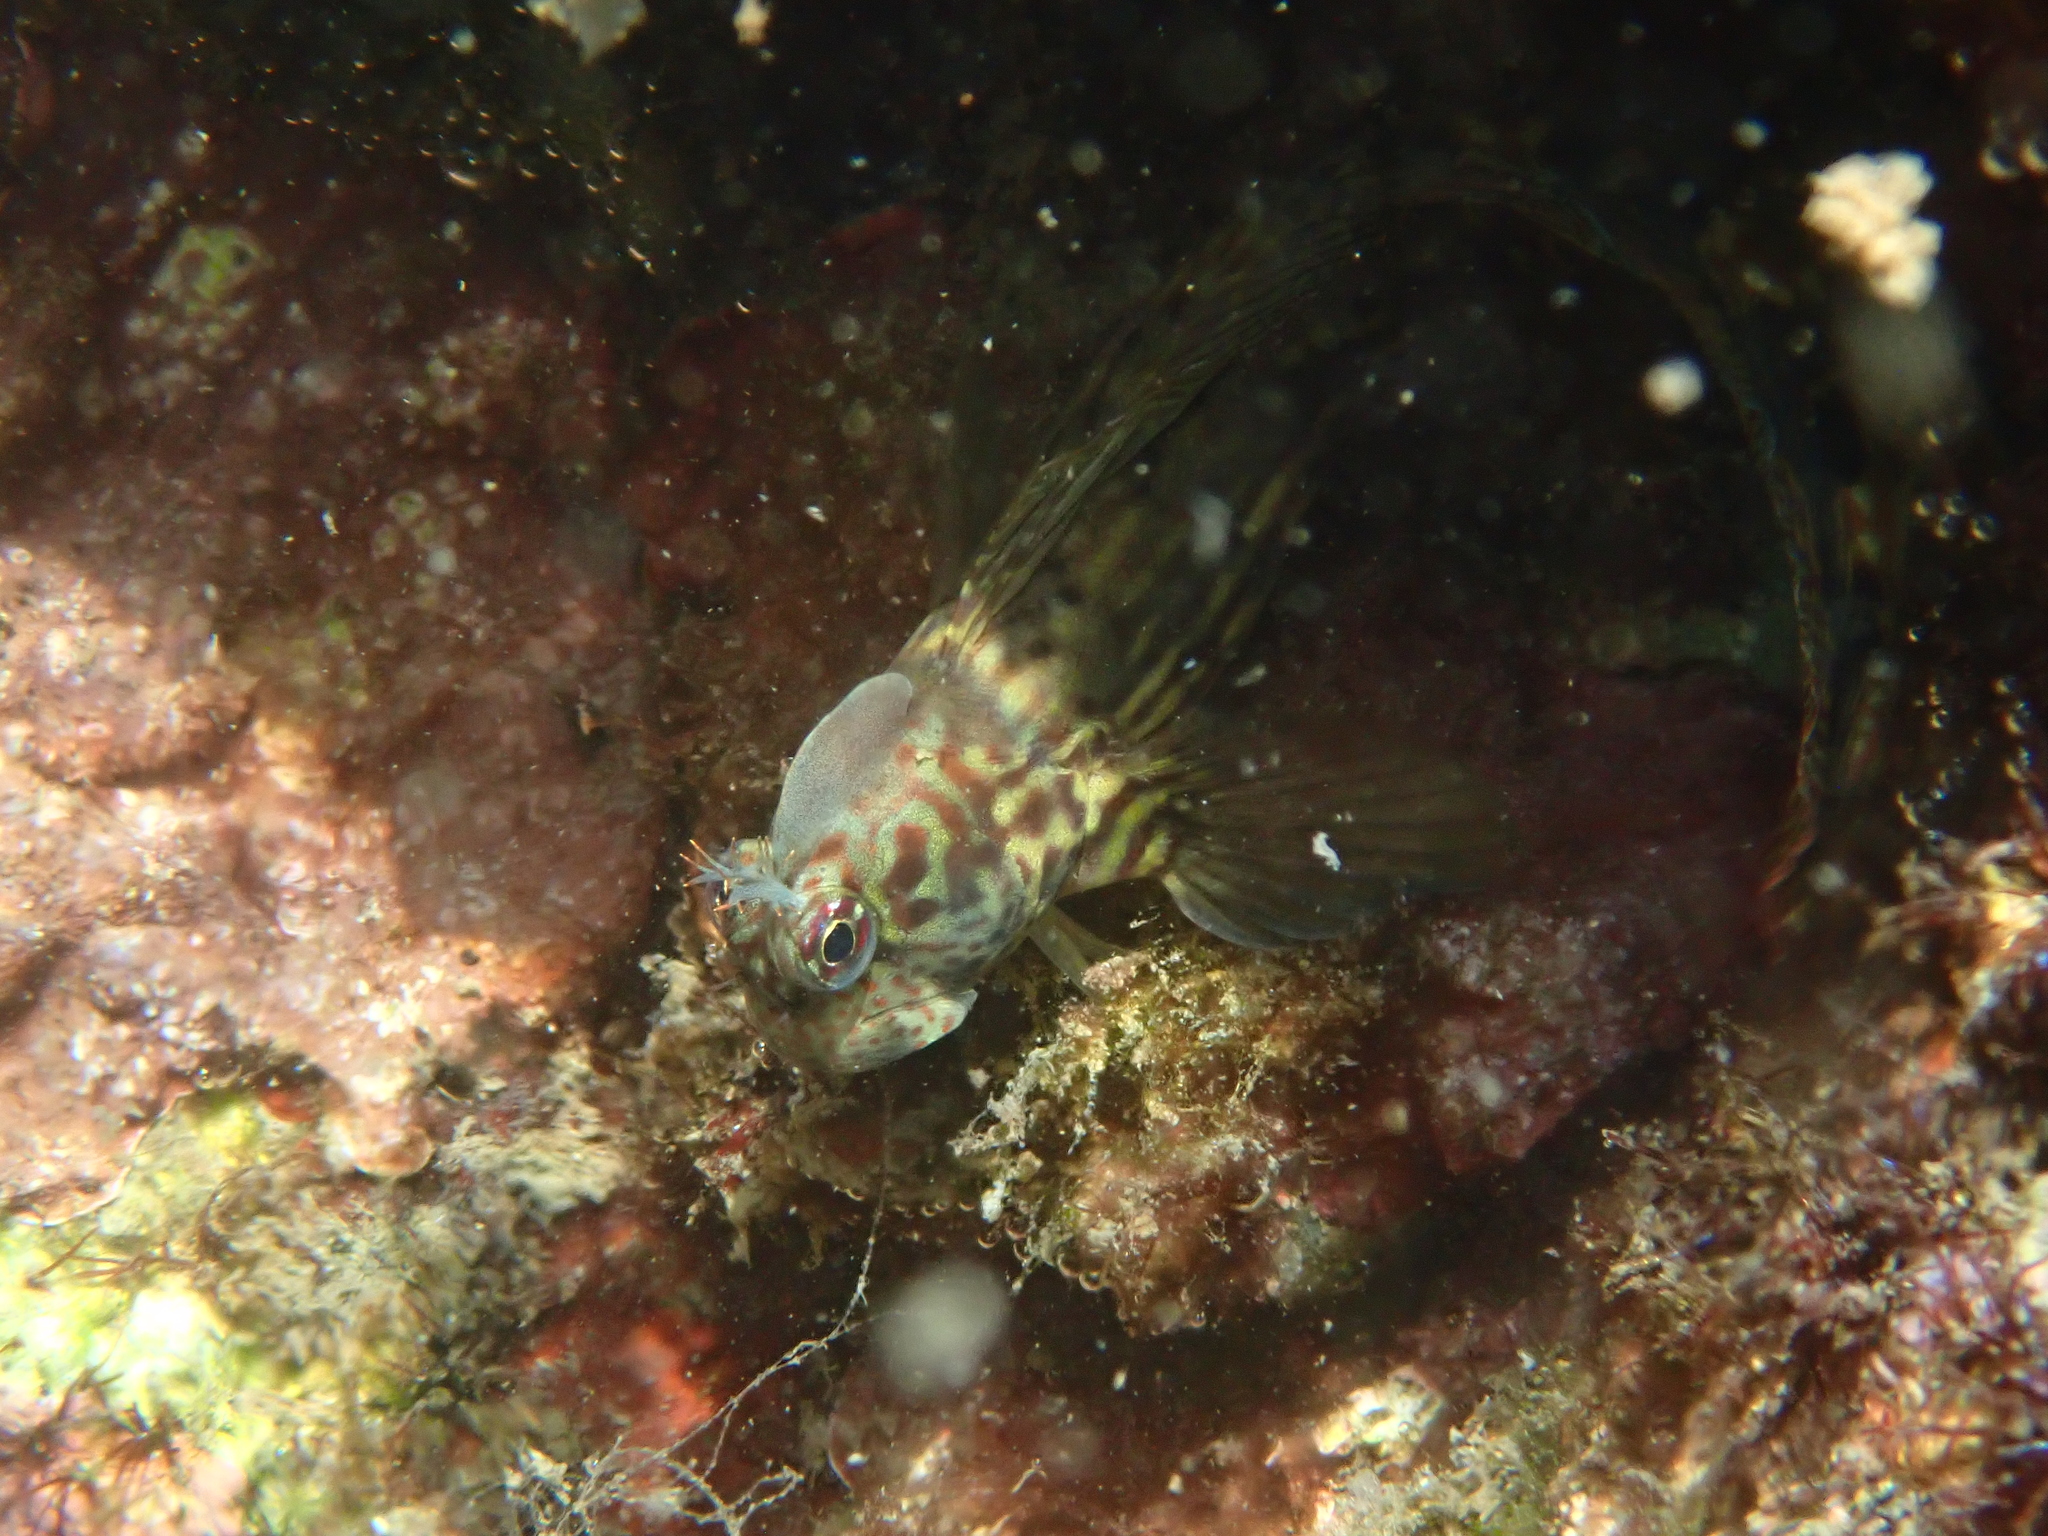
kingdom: Animalia
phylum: Chordata
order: Perciformes
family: Blenniidae
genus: Istiblennius
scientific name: Istiblennius dussumieri
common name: Dussumier's rockskipper
